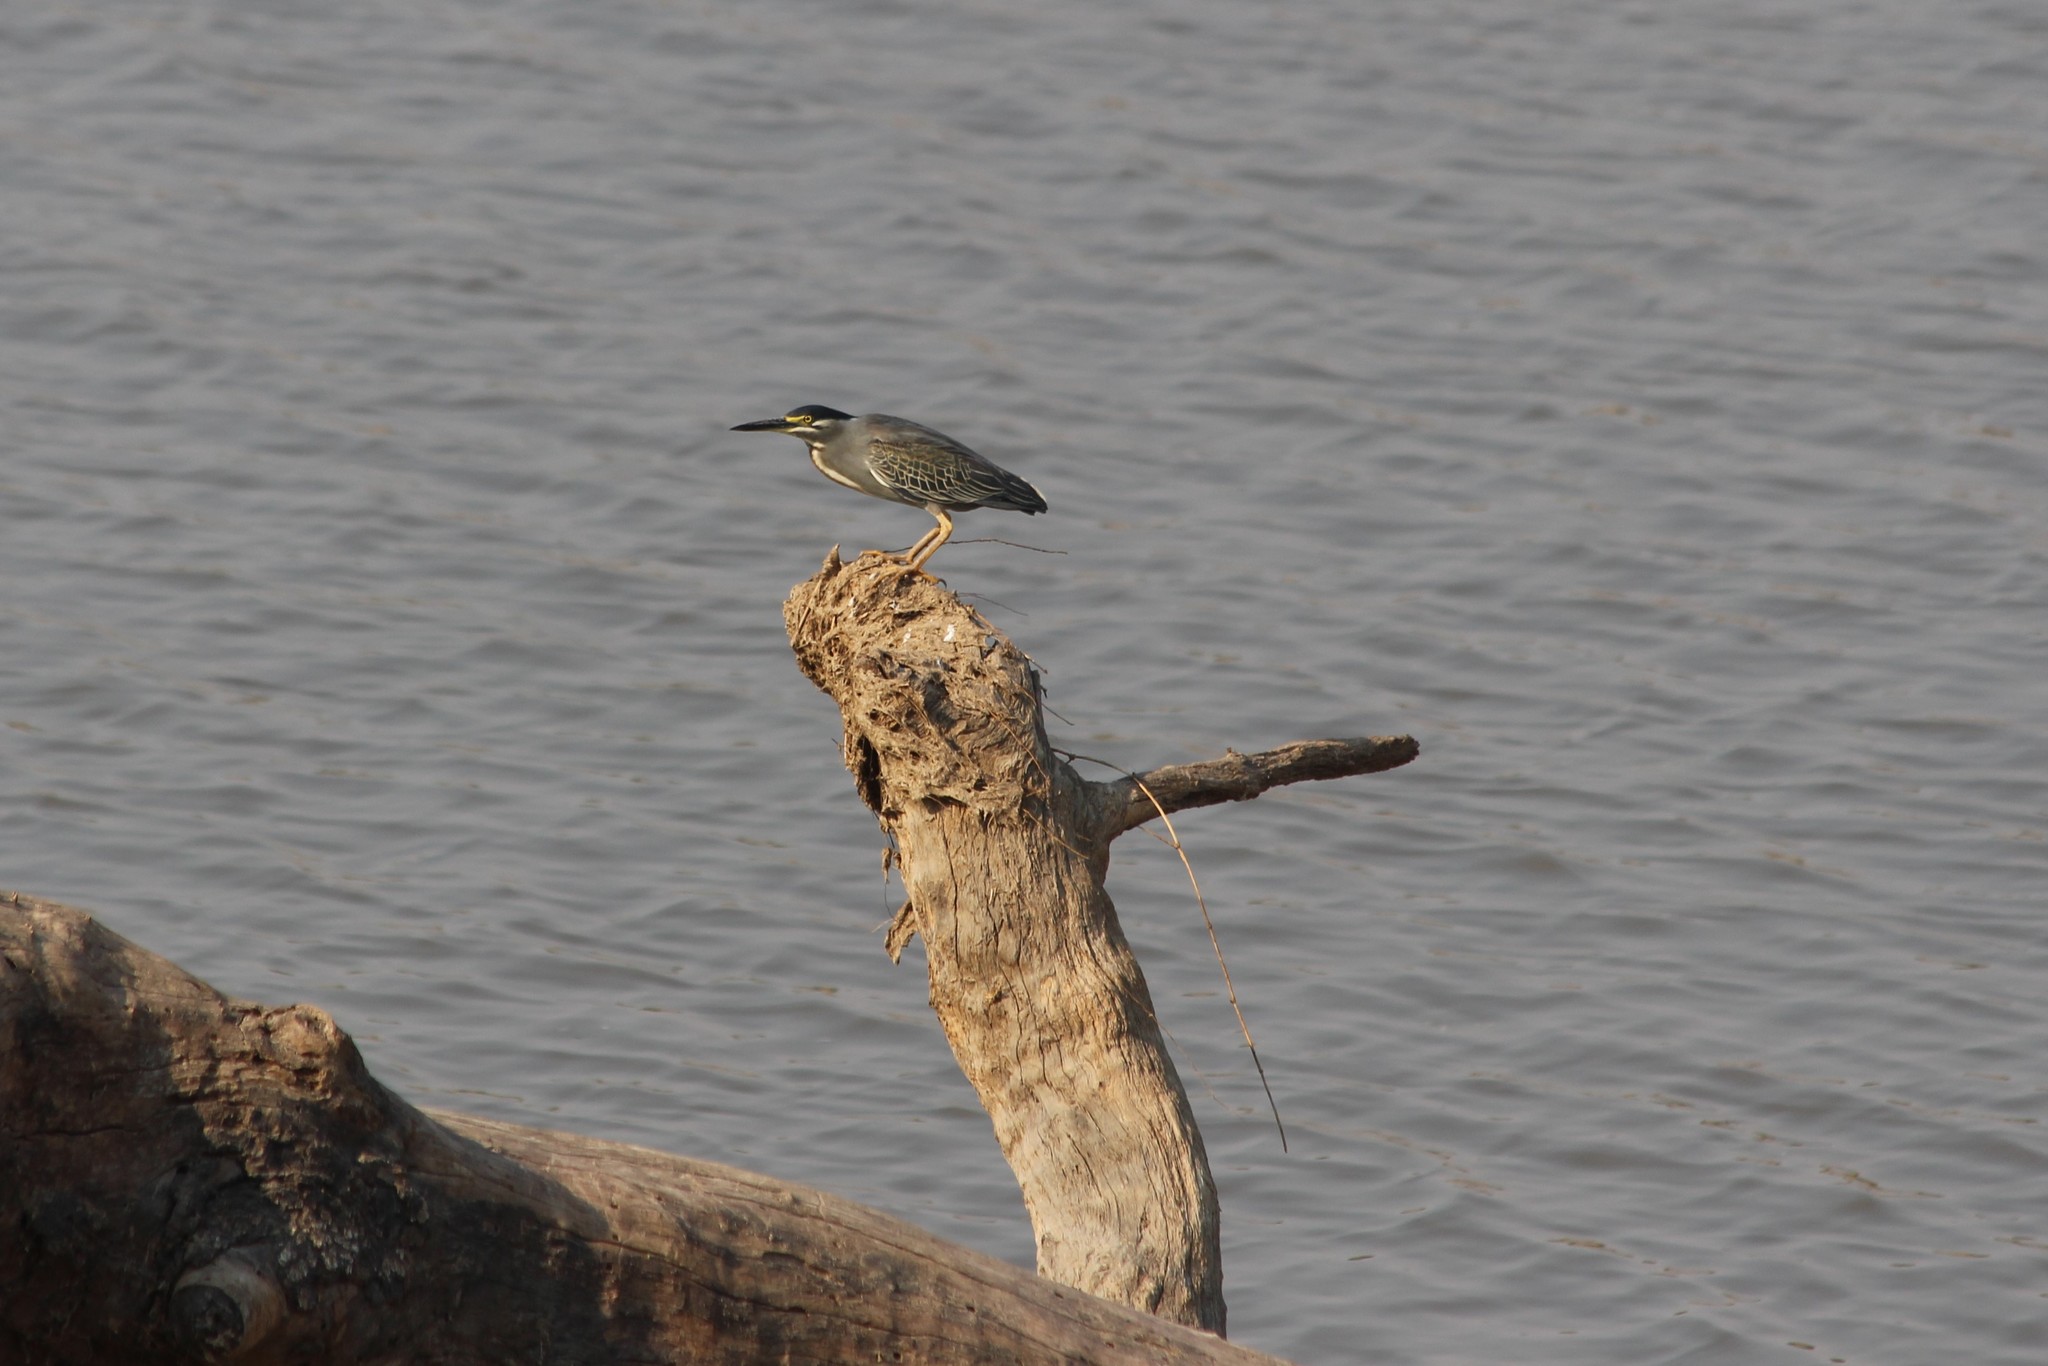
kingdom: Animalia
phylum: Chordata
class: Aves
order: Pelecaniformes
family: Ardeidae
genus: Butorides
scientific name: Butorides striata
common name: Striated heron
